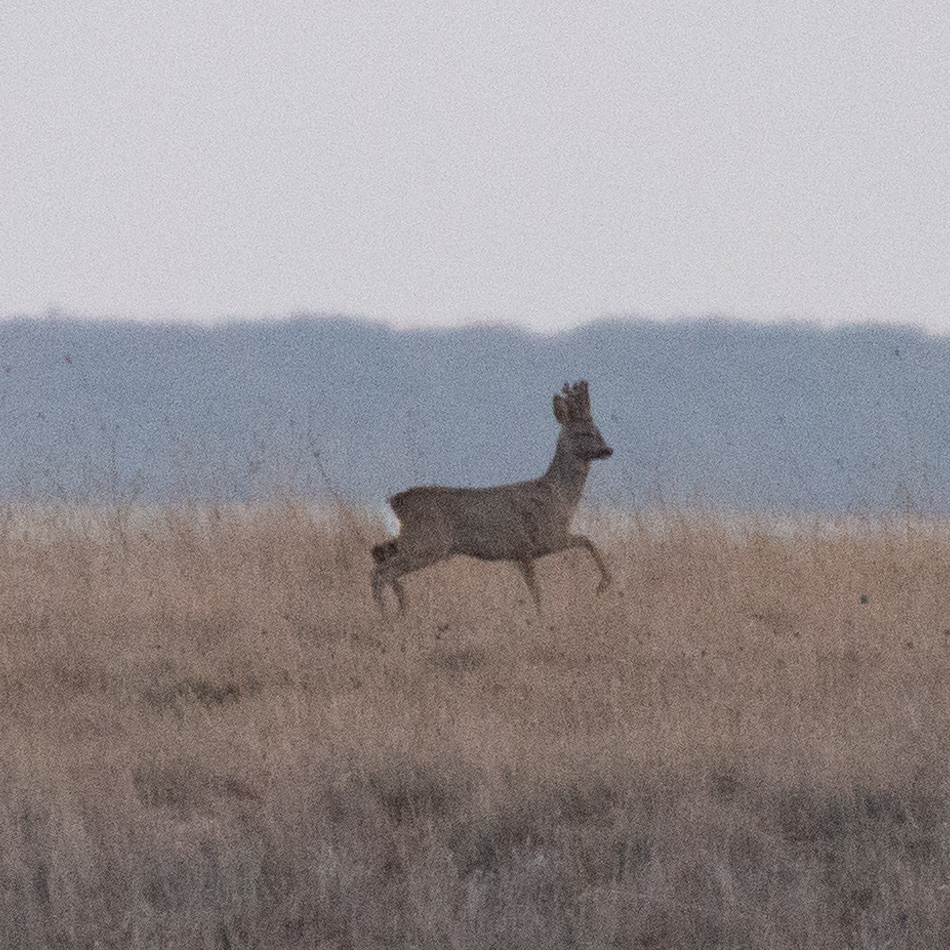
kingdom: Animalia
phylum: Chordata
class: Mammalia
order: Artiodactyla
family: Cervidae
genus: Capreolus
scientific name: Capreolus capreolus
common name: Western roe deer
